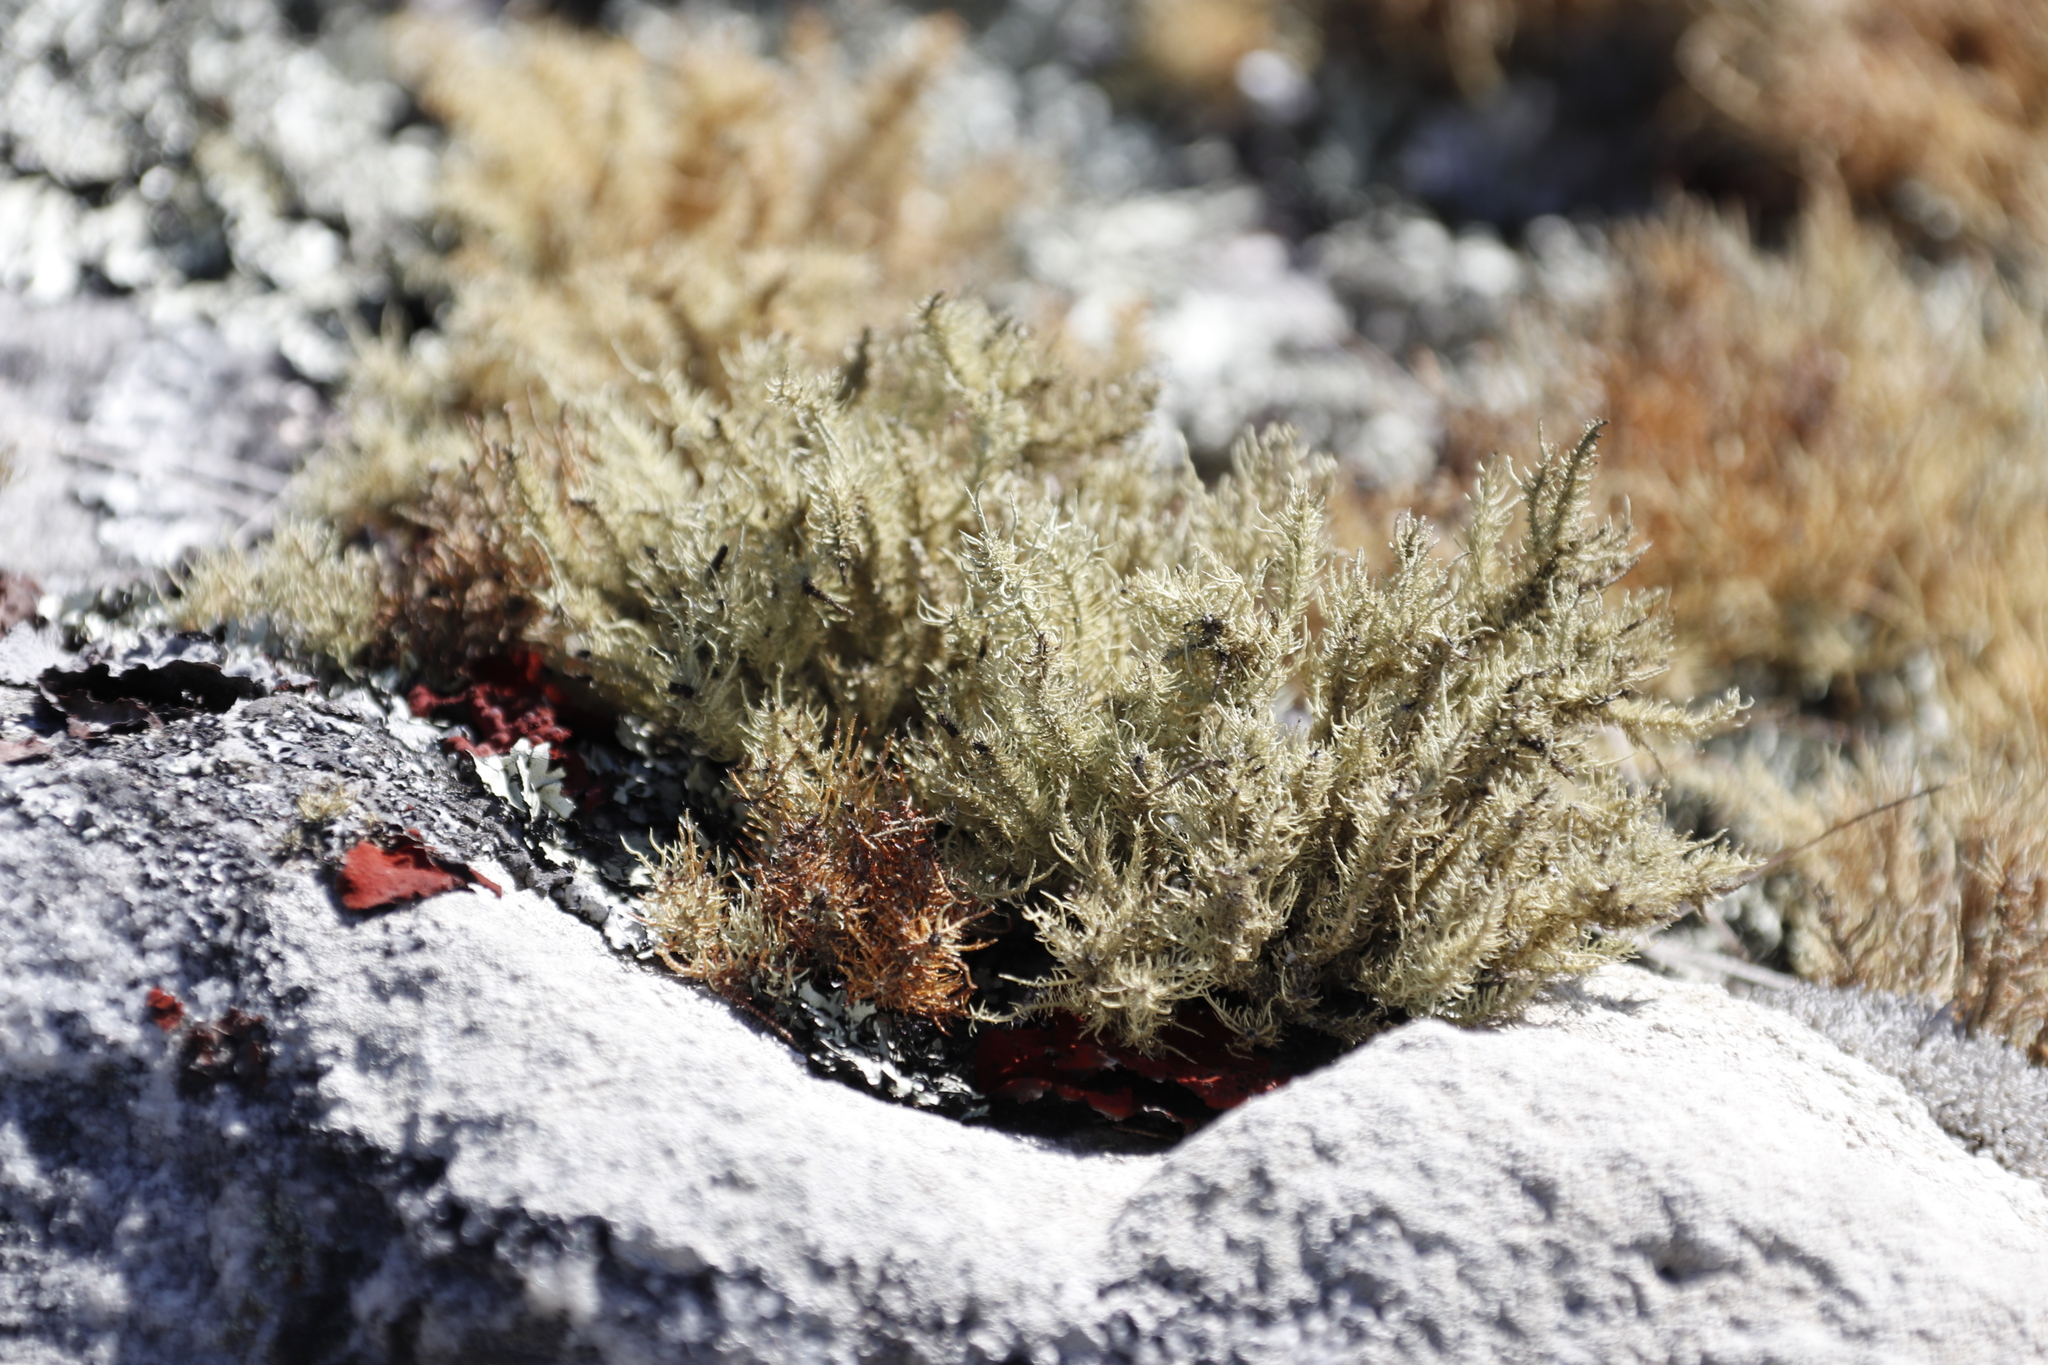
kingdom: Fungi
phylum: Ascomycota
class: Lecanoromycetes
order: Lecanorales
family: Parmeliaceae
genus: Usnea
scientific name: Usnea pulvinata
